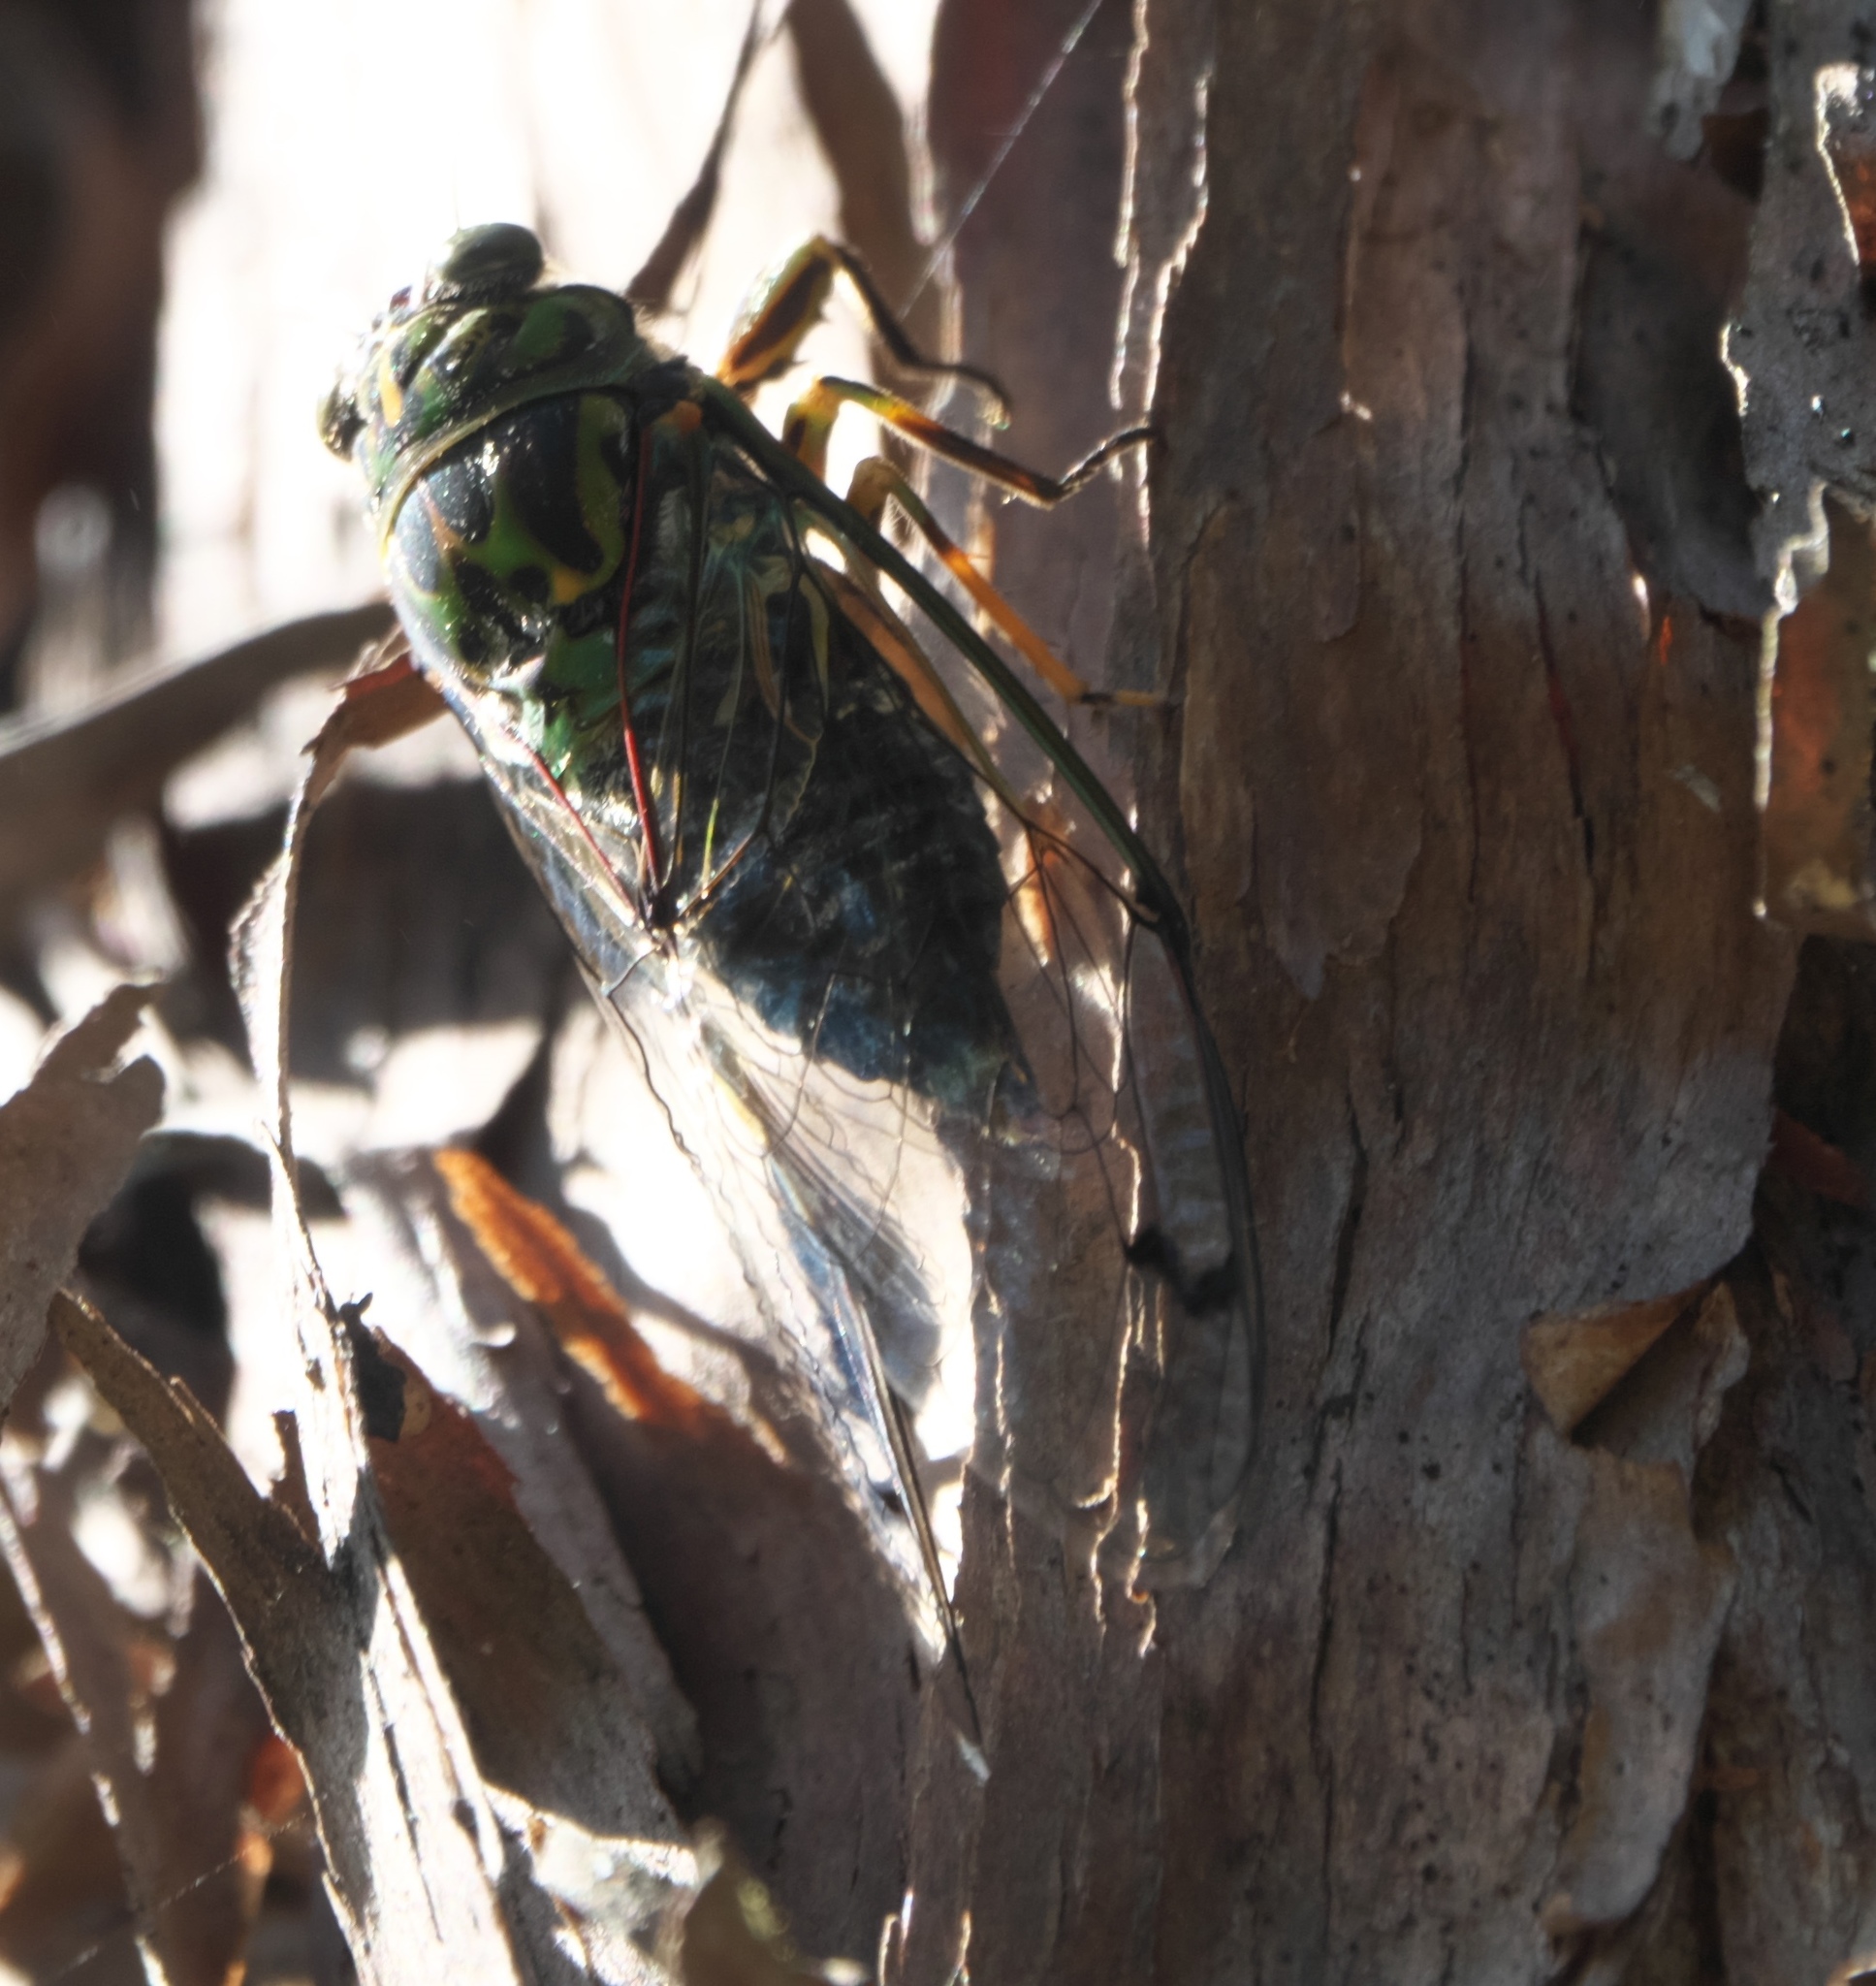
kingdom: Animalia
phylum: Arthropoda
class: Insecta
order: Hemiptera
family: Cicadidae
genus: Amphipsalta
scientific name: Amphipsalta zelandica
